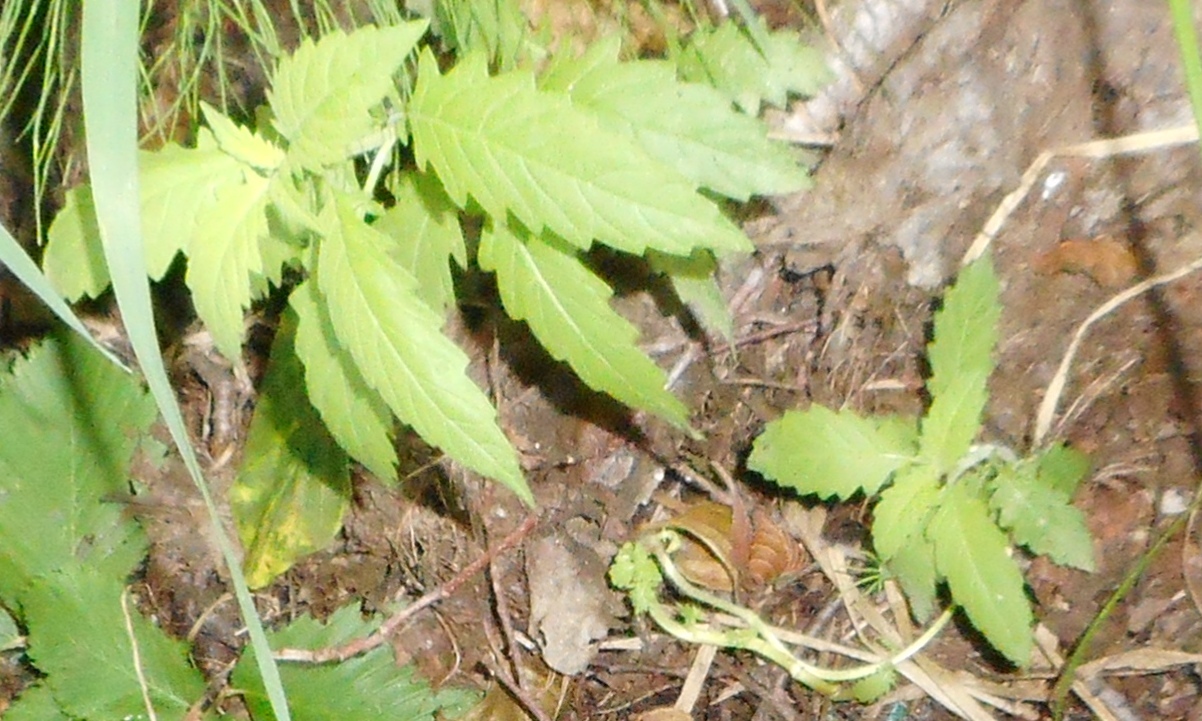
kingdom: Plantae
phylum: Tracheophyta
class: Magnoliopsida
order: Lamiales
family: Lamiaceae
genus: Lycopus
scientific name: Lycopus europaeus
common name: European bugleweed
